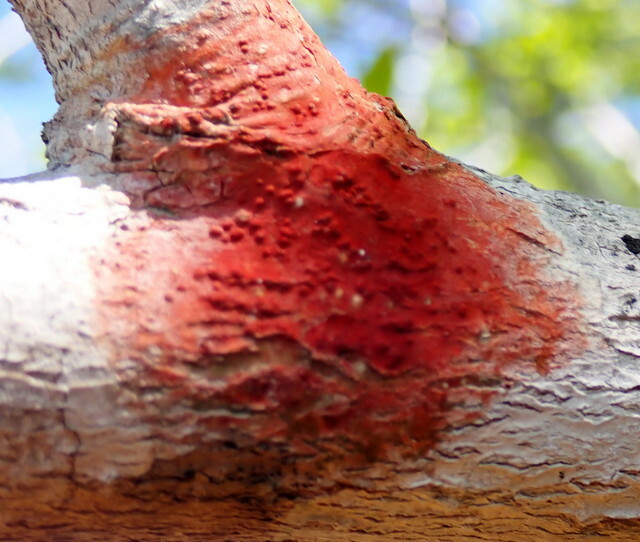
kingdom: Fungi
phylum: Ascomycota
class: Eurotiomycetes
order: Pyrenulales
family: Pyrenulaceae
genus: Pyrenula
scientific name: Pyrenula cruenta
